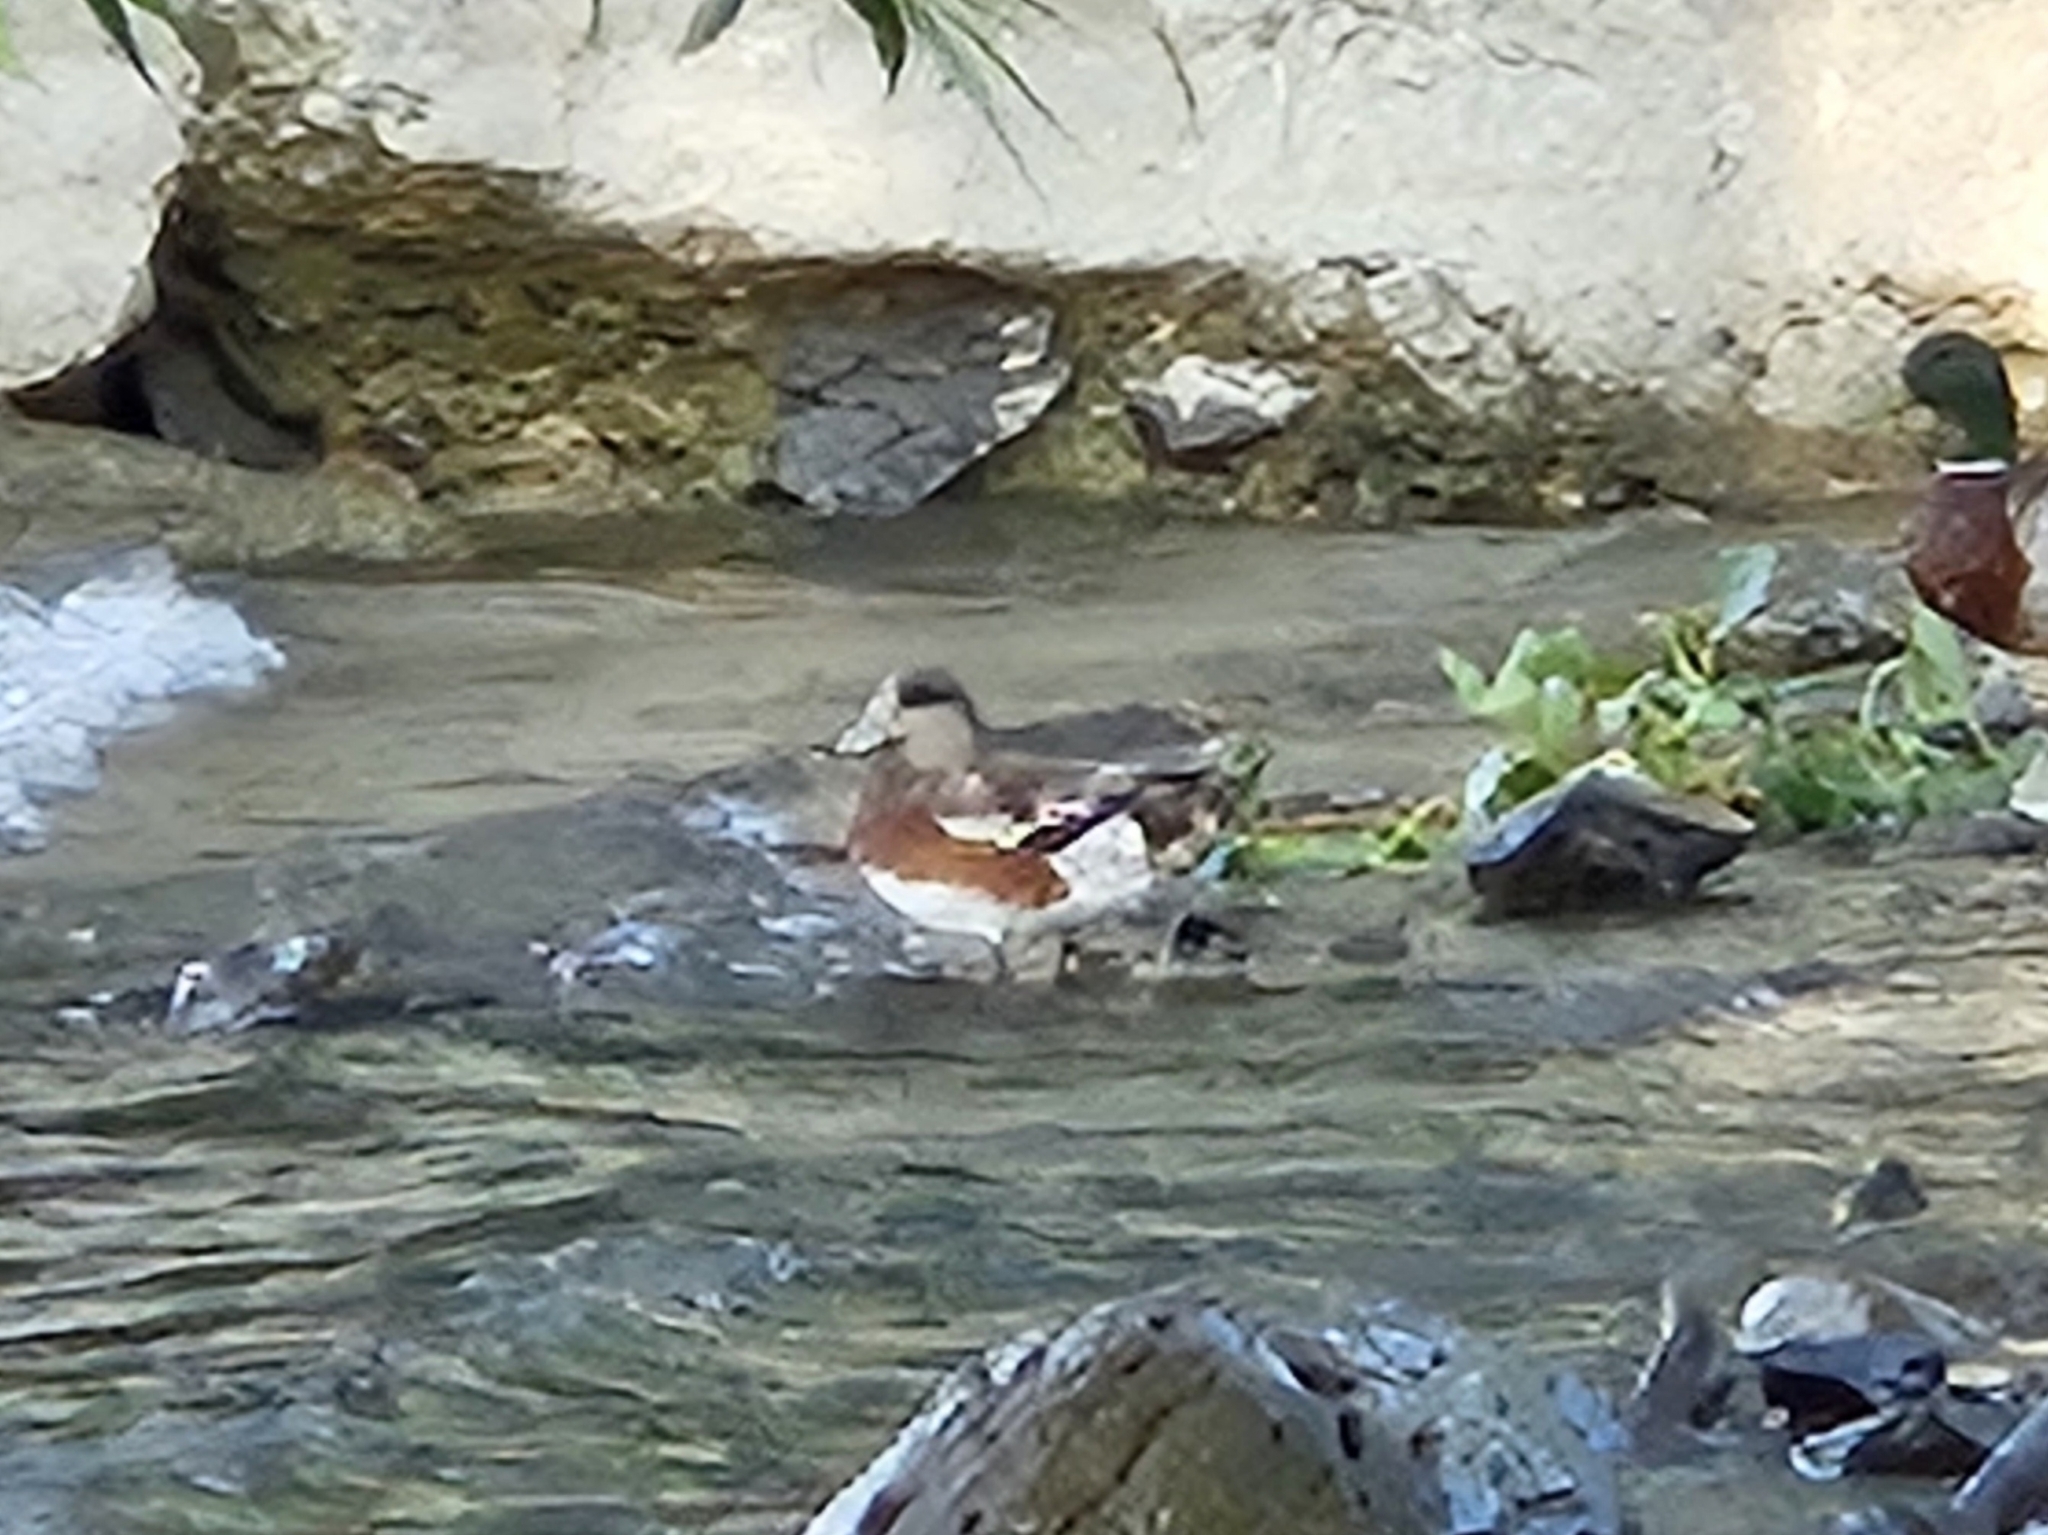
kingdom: Animalia
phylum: Chordata
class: Aves
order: Anseriformes
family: Anatidae
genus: Mareca
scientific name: Mareca americana
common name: American wigeon
